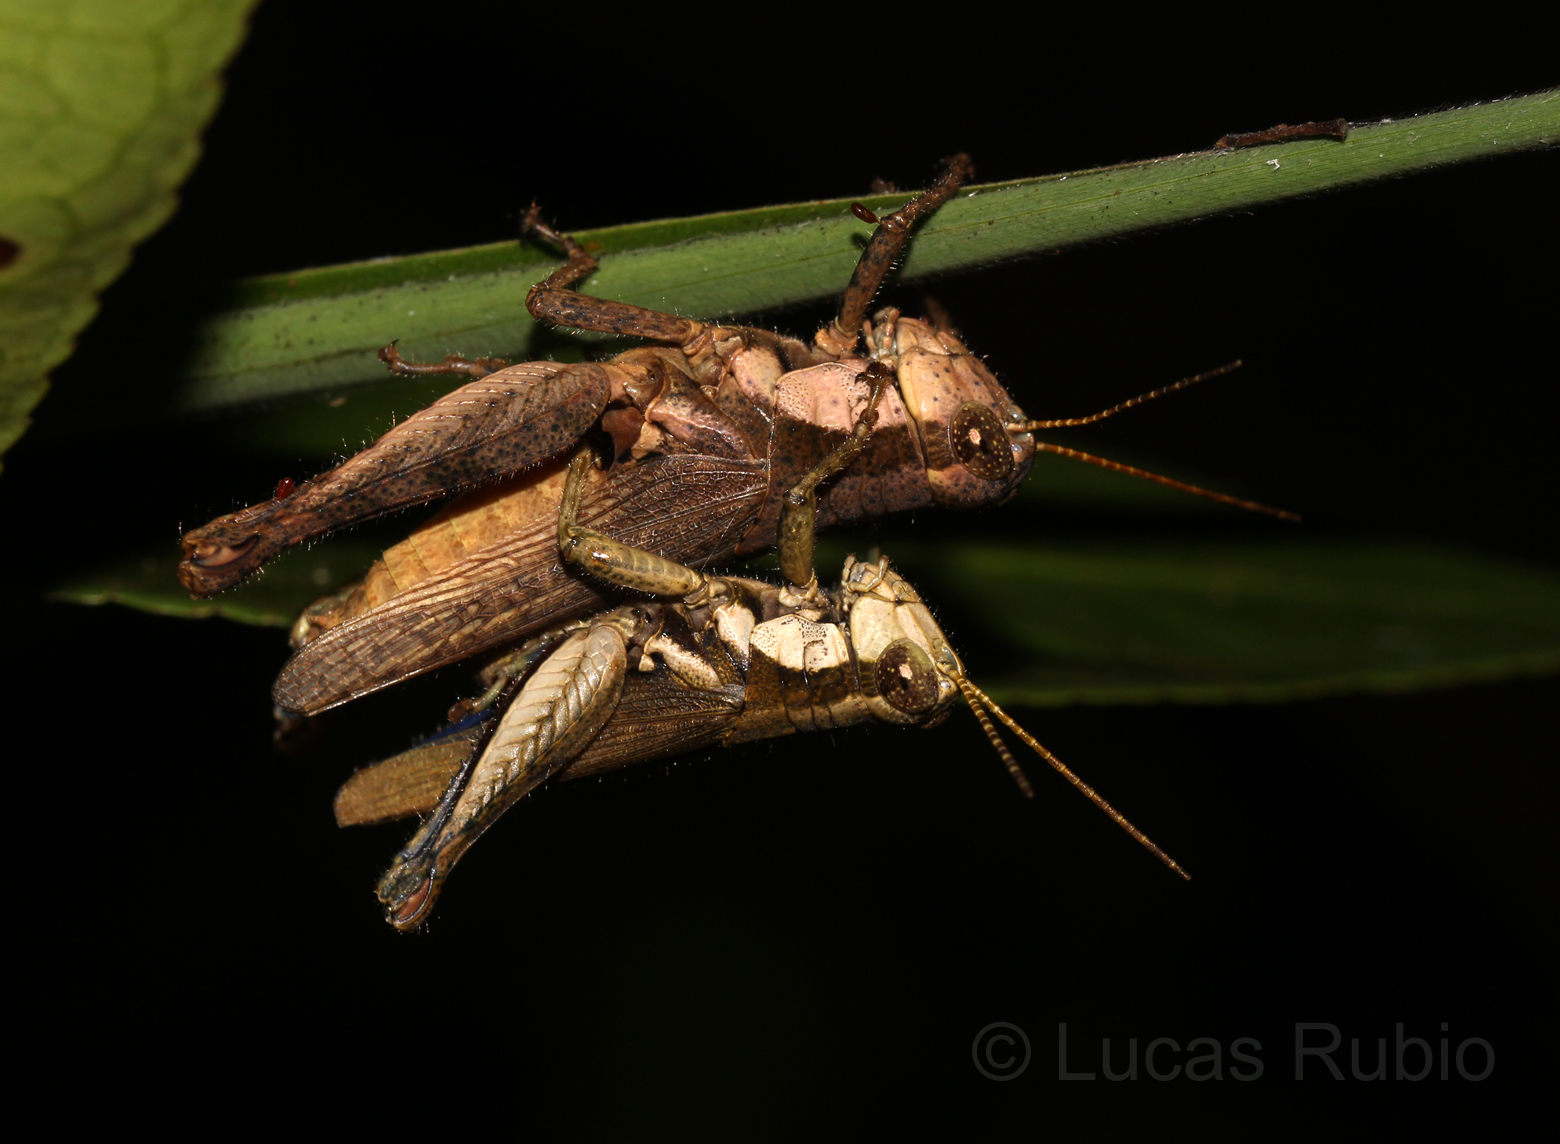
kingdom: Animalia
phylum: Arthropoda
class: Insecta
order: Orthoptera
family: Acrididae
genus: Ronderosia
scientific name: Ronderosia bergii
